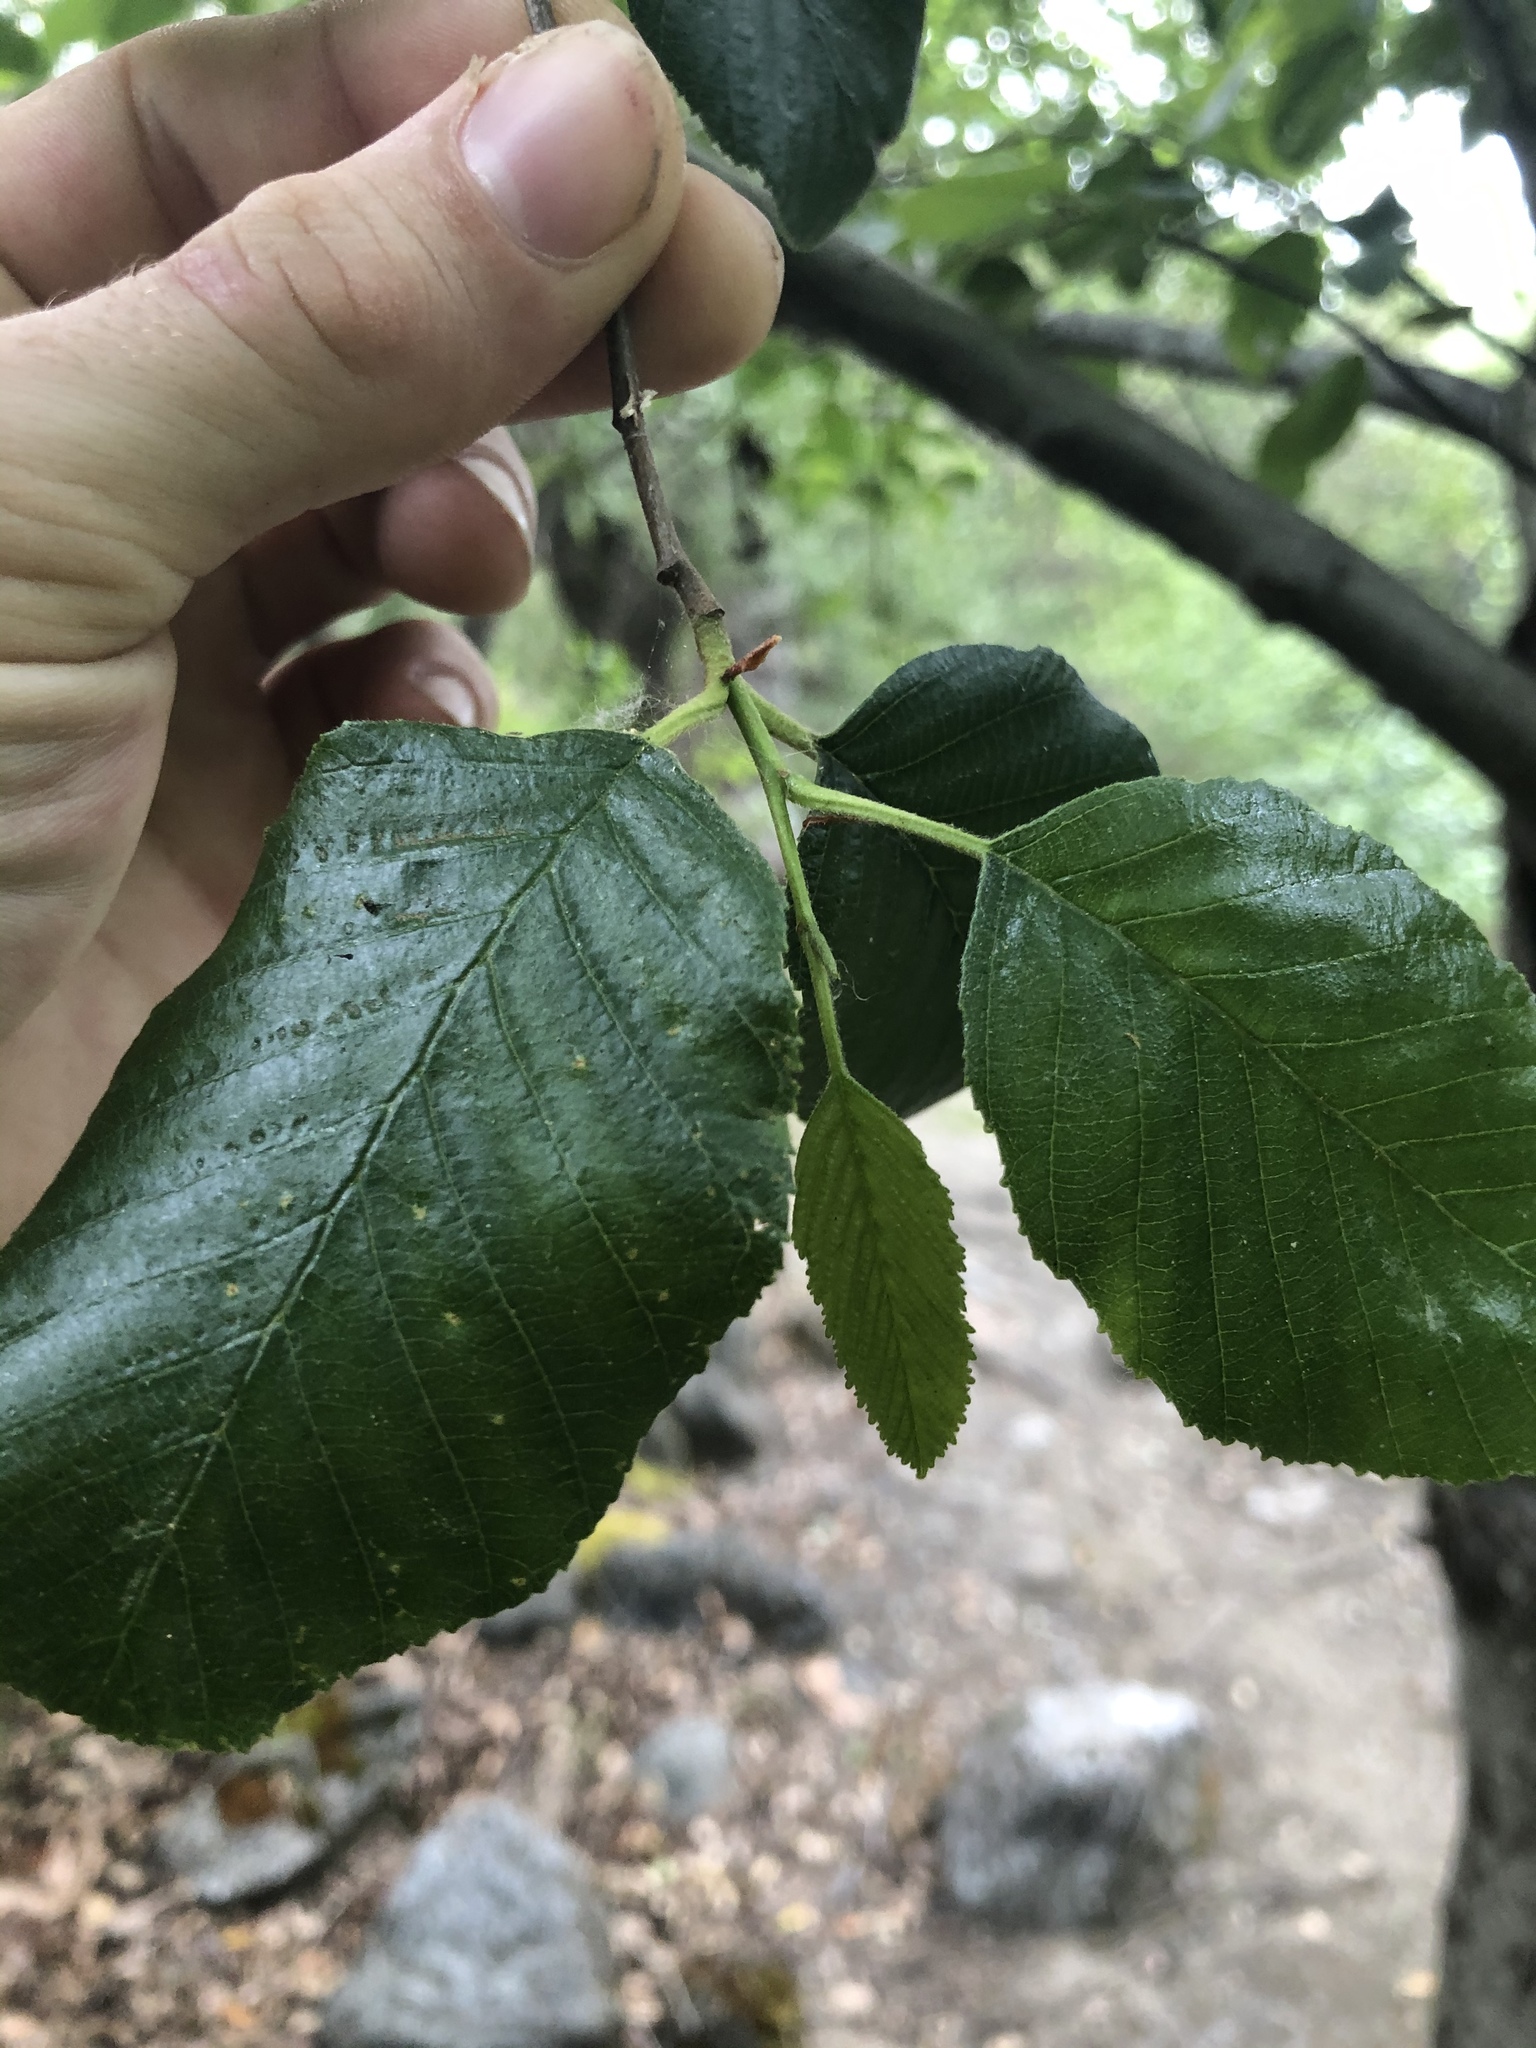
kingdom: Plantae
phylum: Tracheophyta
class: Magnoliopsida
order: Fagales
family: Betulaceae
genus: Alnus
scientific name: Alnus rhombifolia
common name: California alder
